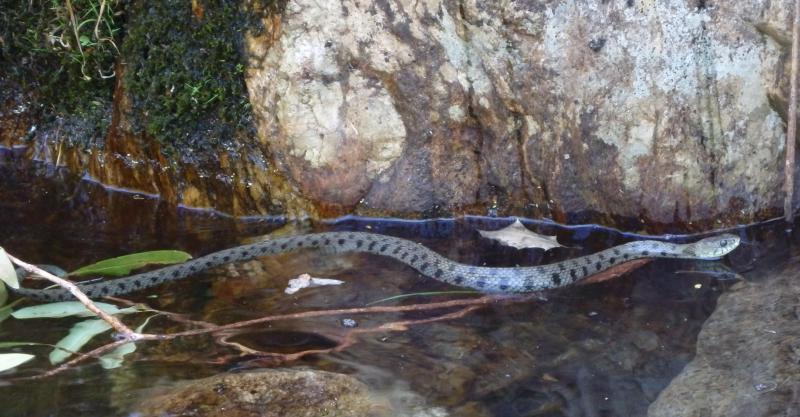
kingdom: Animalia
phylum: Chordata
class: Squamata
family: Colubridae
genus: Natrix
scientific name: Natrix astreptophora
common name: Red-eyed grass snake
